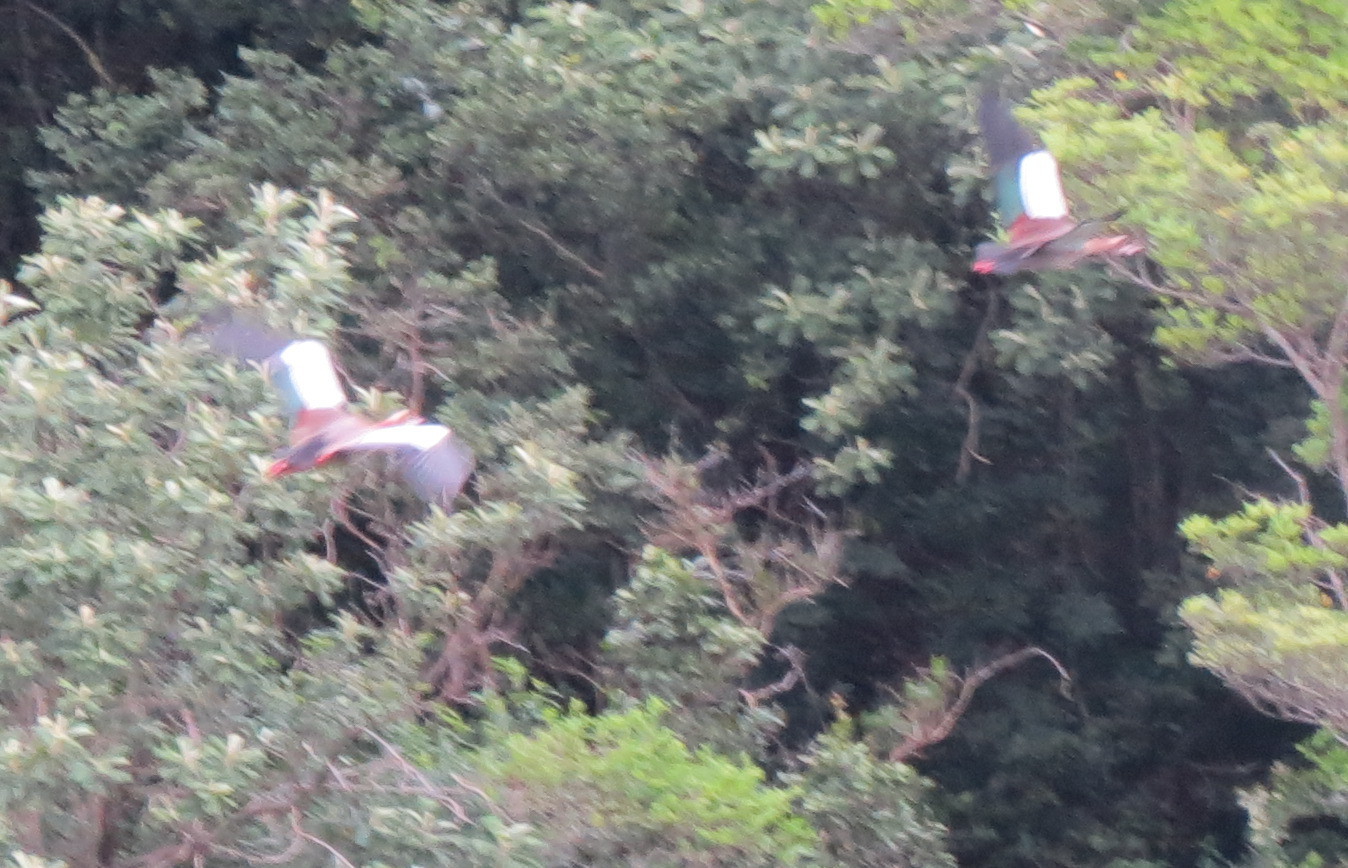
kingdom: Animalia
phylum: Chordata
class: Aves
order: Anseriformes
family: Anatidae
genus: Alopochen
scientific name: Alopochen aegyptiaca
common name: Egyptian goose
